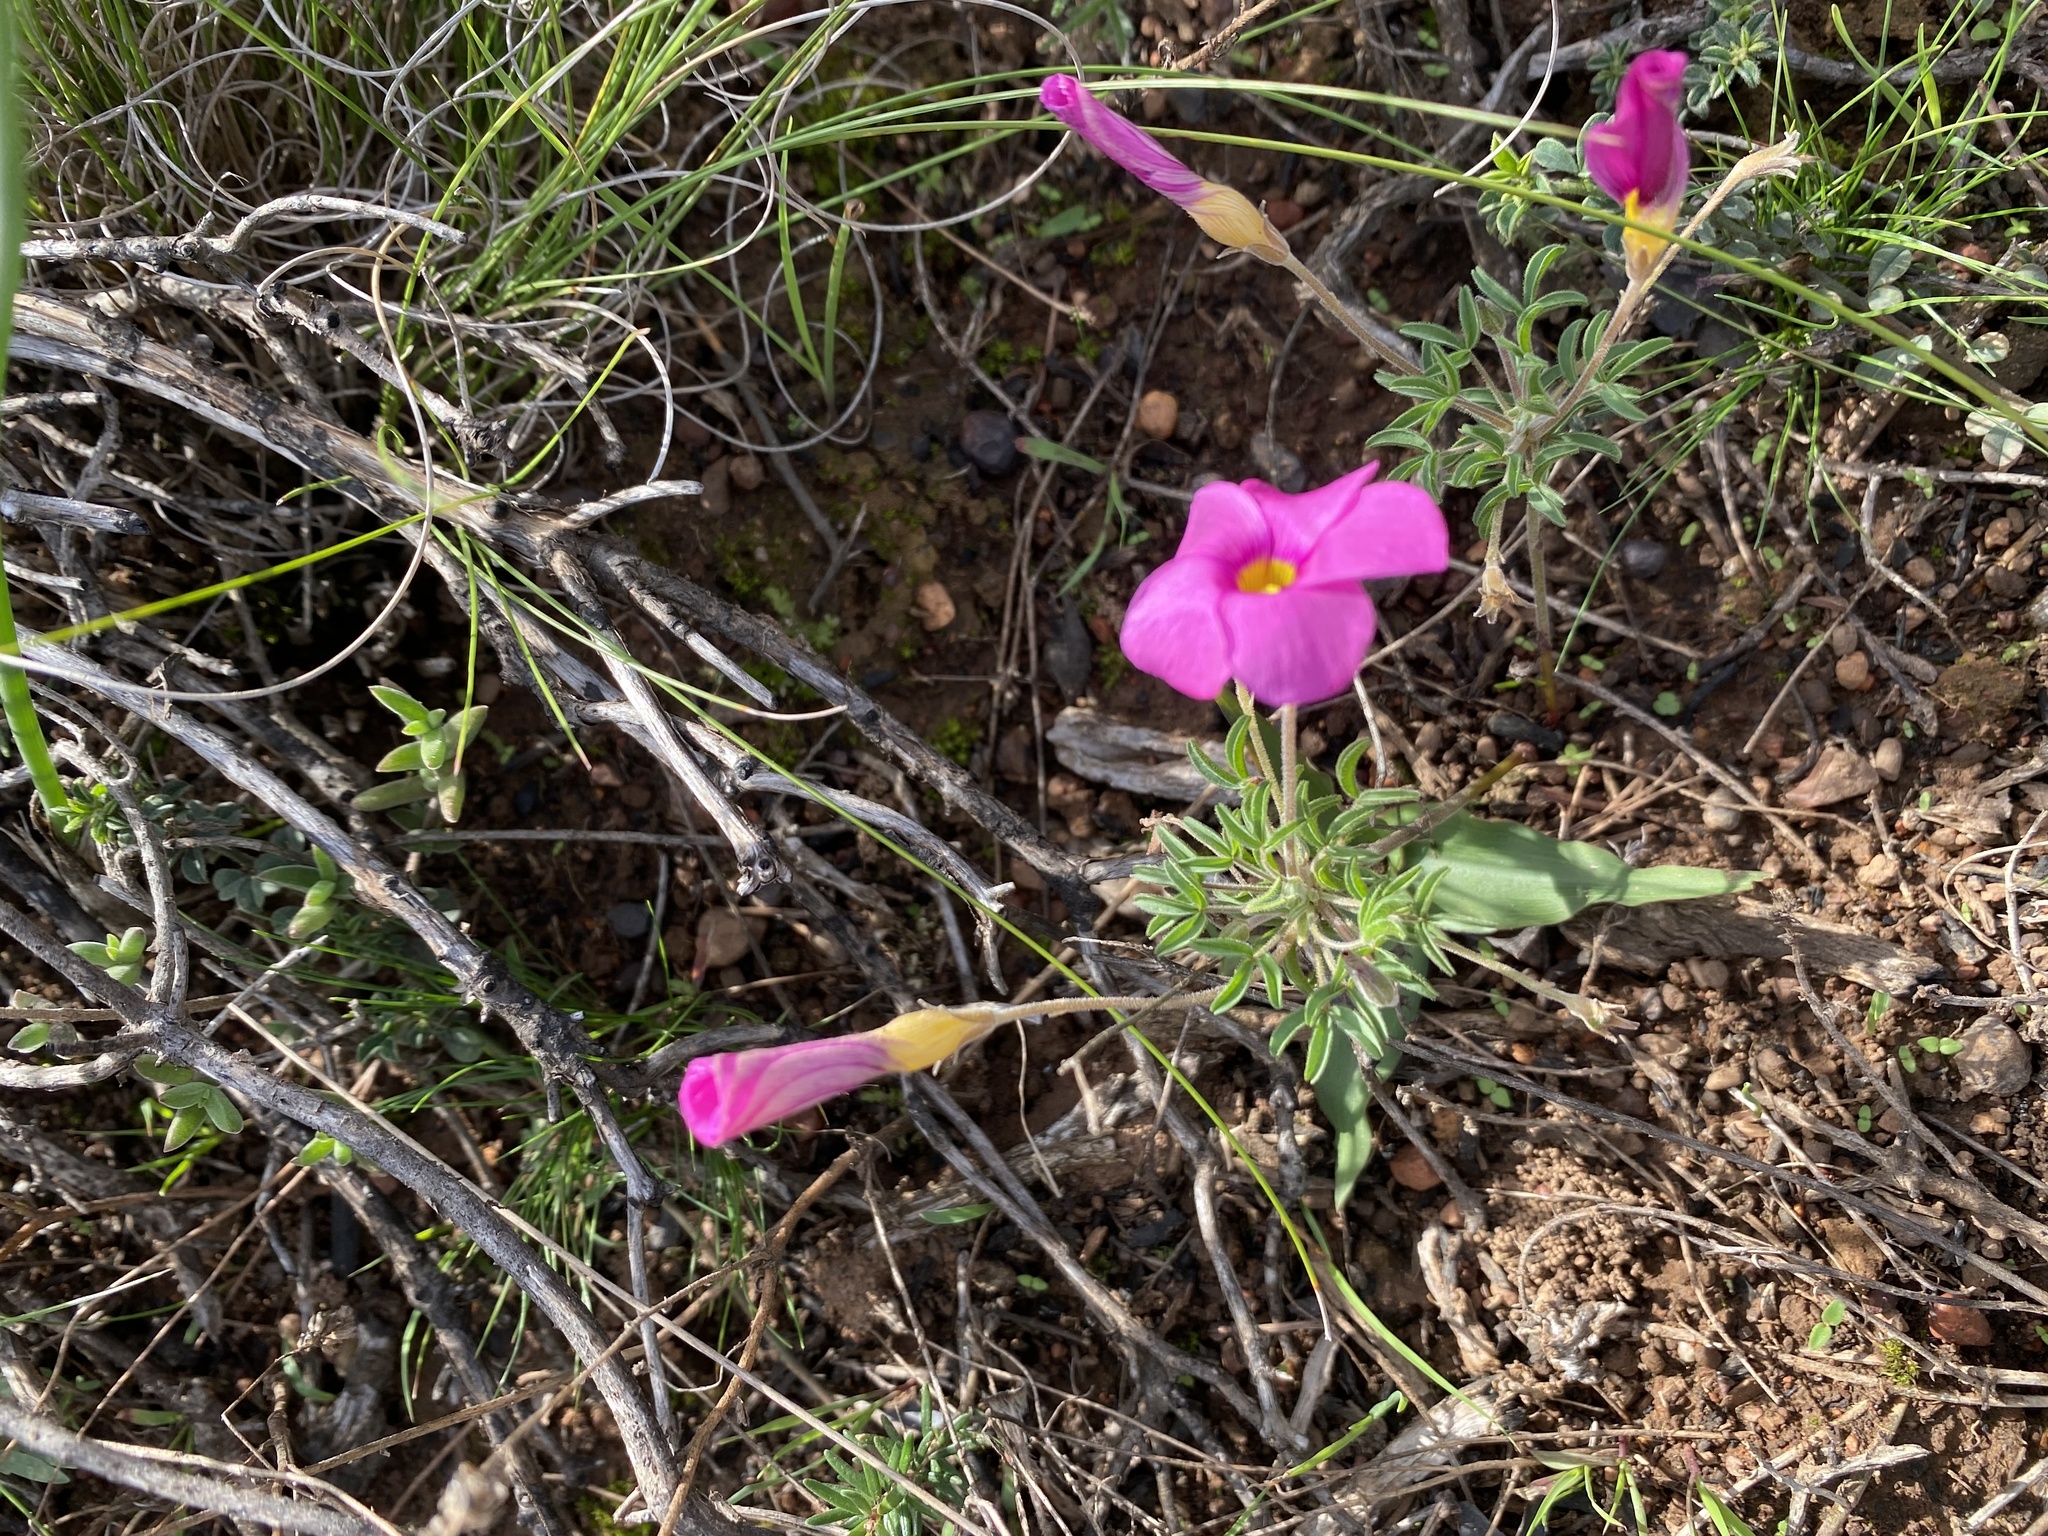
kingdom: Plantae
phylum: Tracheophyta
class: Magnoliopsida
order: Oxalidales
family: Oxalidaceae
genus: Oxalis
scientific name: Oxalis ciliaris
